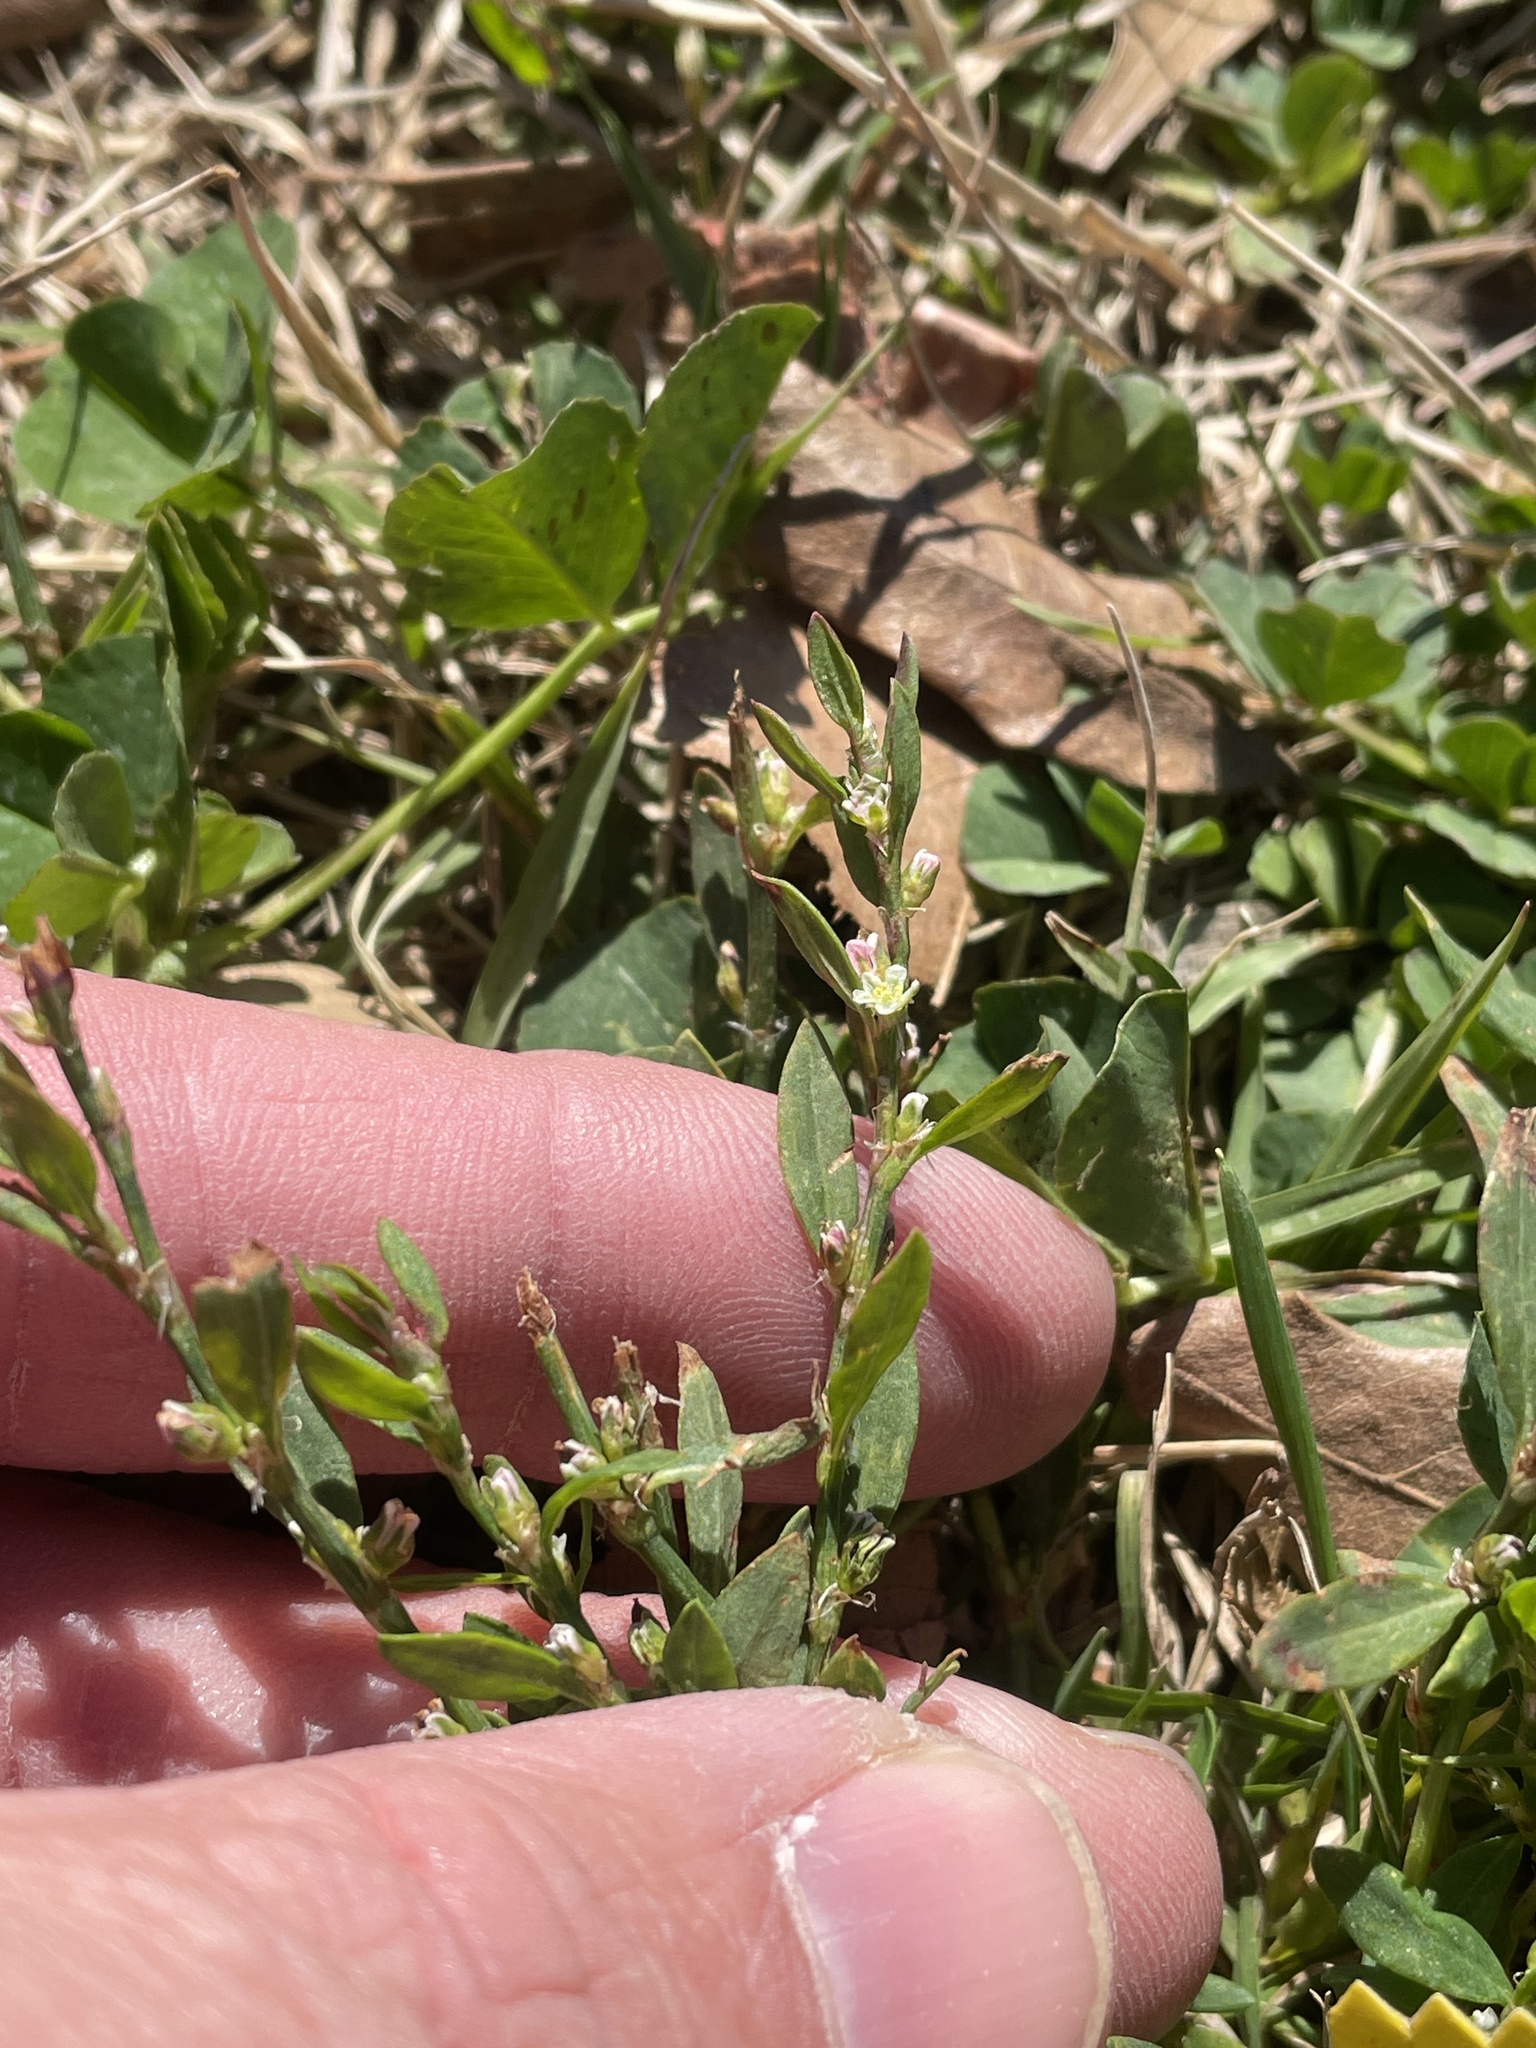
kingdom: Plantae
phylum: Tracheophyta
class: Magnoliopsida
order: Caryophyllales
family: Polygonaceae
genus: Polygonum
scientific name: Polygonum aviculare
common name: Prostrate knotweed
